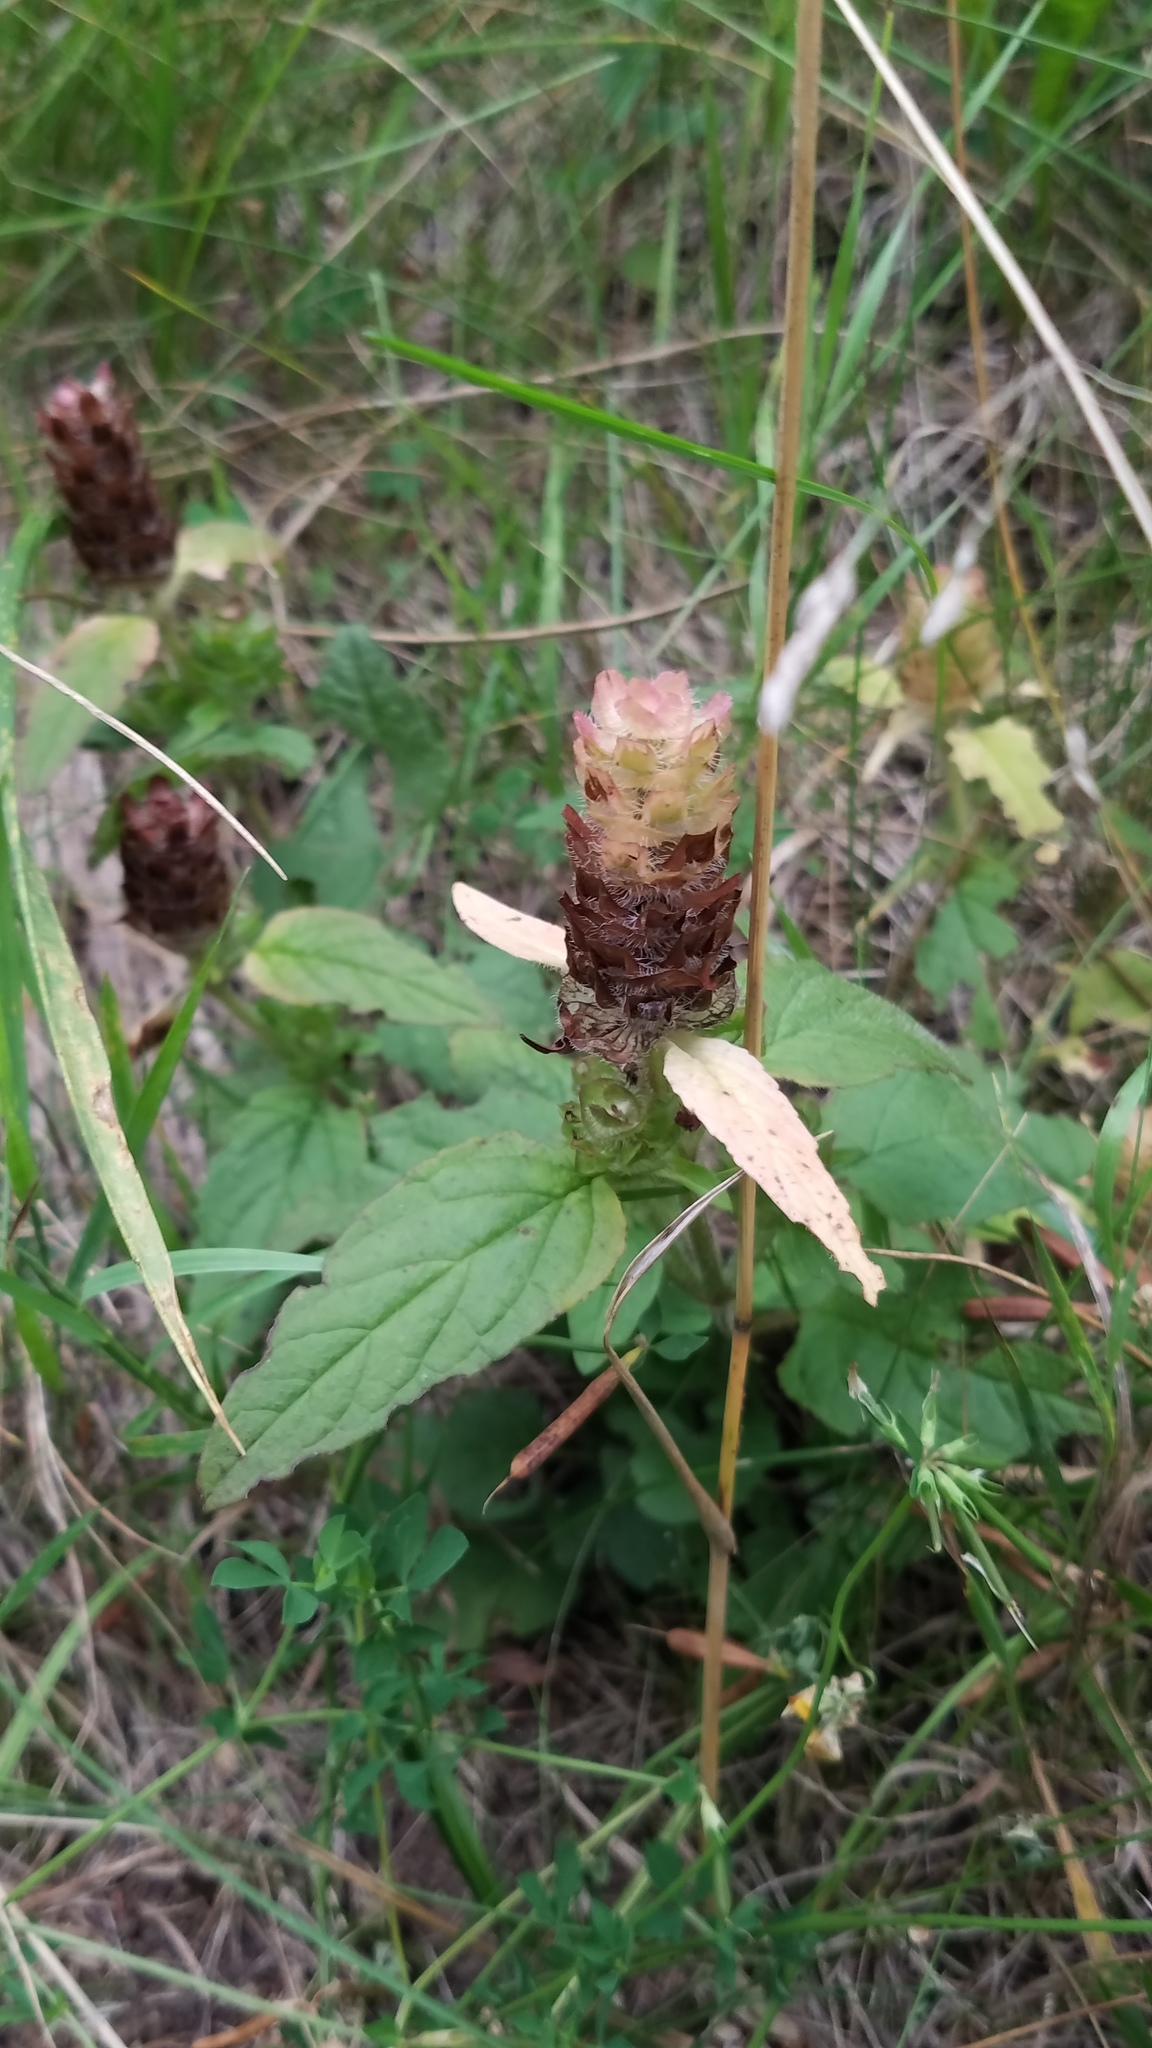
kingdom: Plantae
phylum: Tracheophyta
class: Magnoliopsida
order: Lamiales
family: Lamiaceae
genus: Prunella
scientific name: Prunella vulgaris
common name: Heal-all
